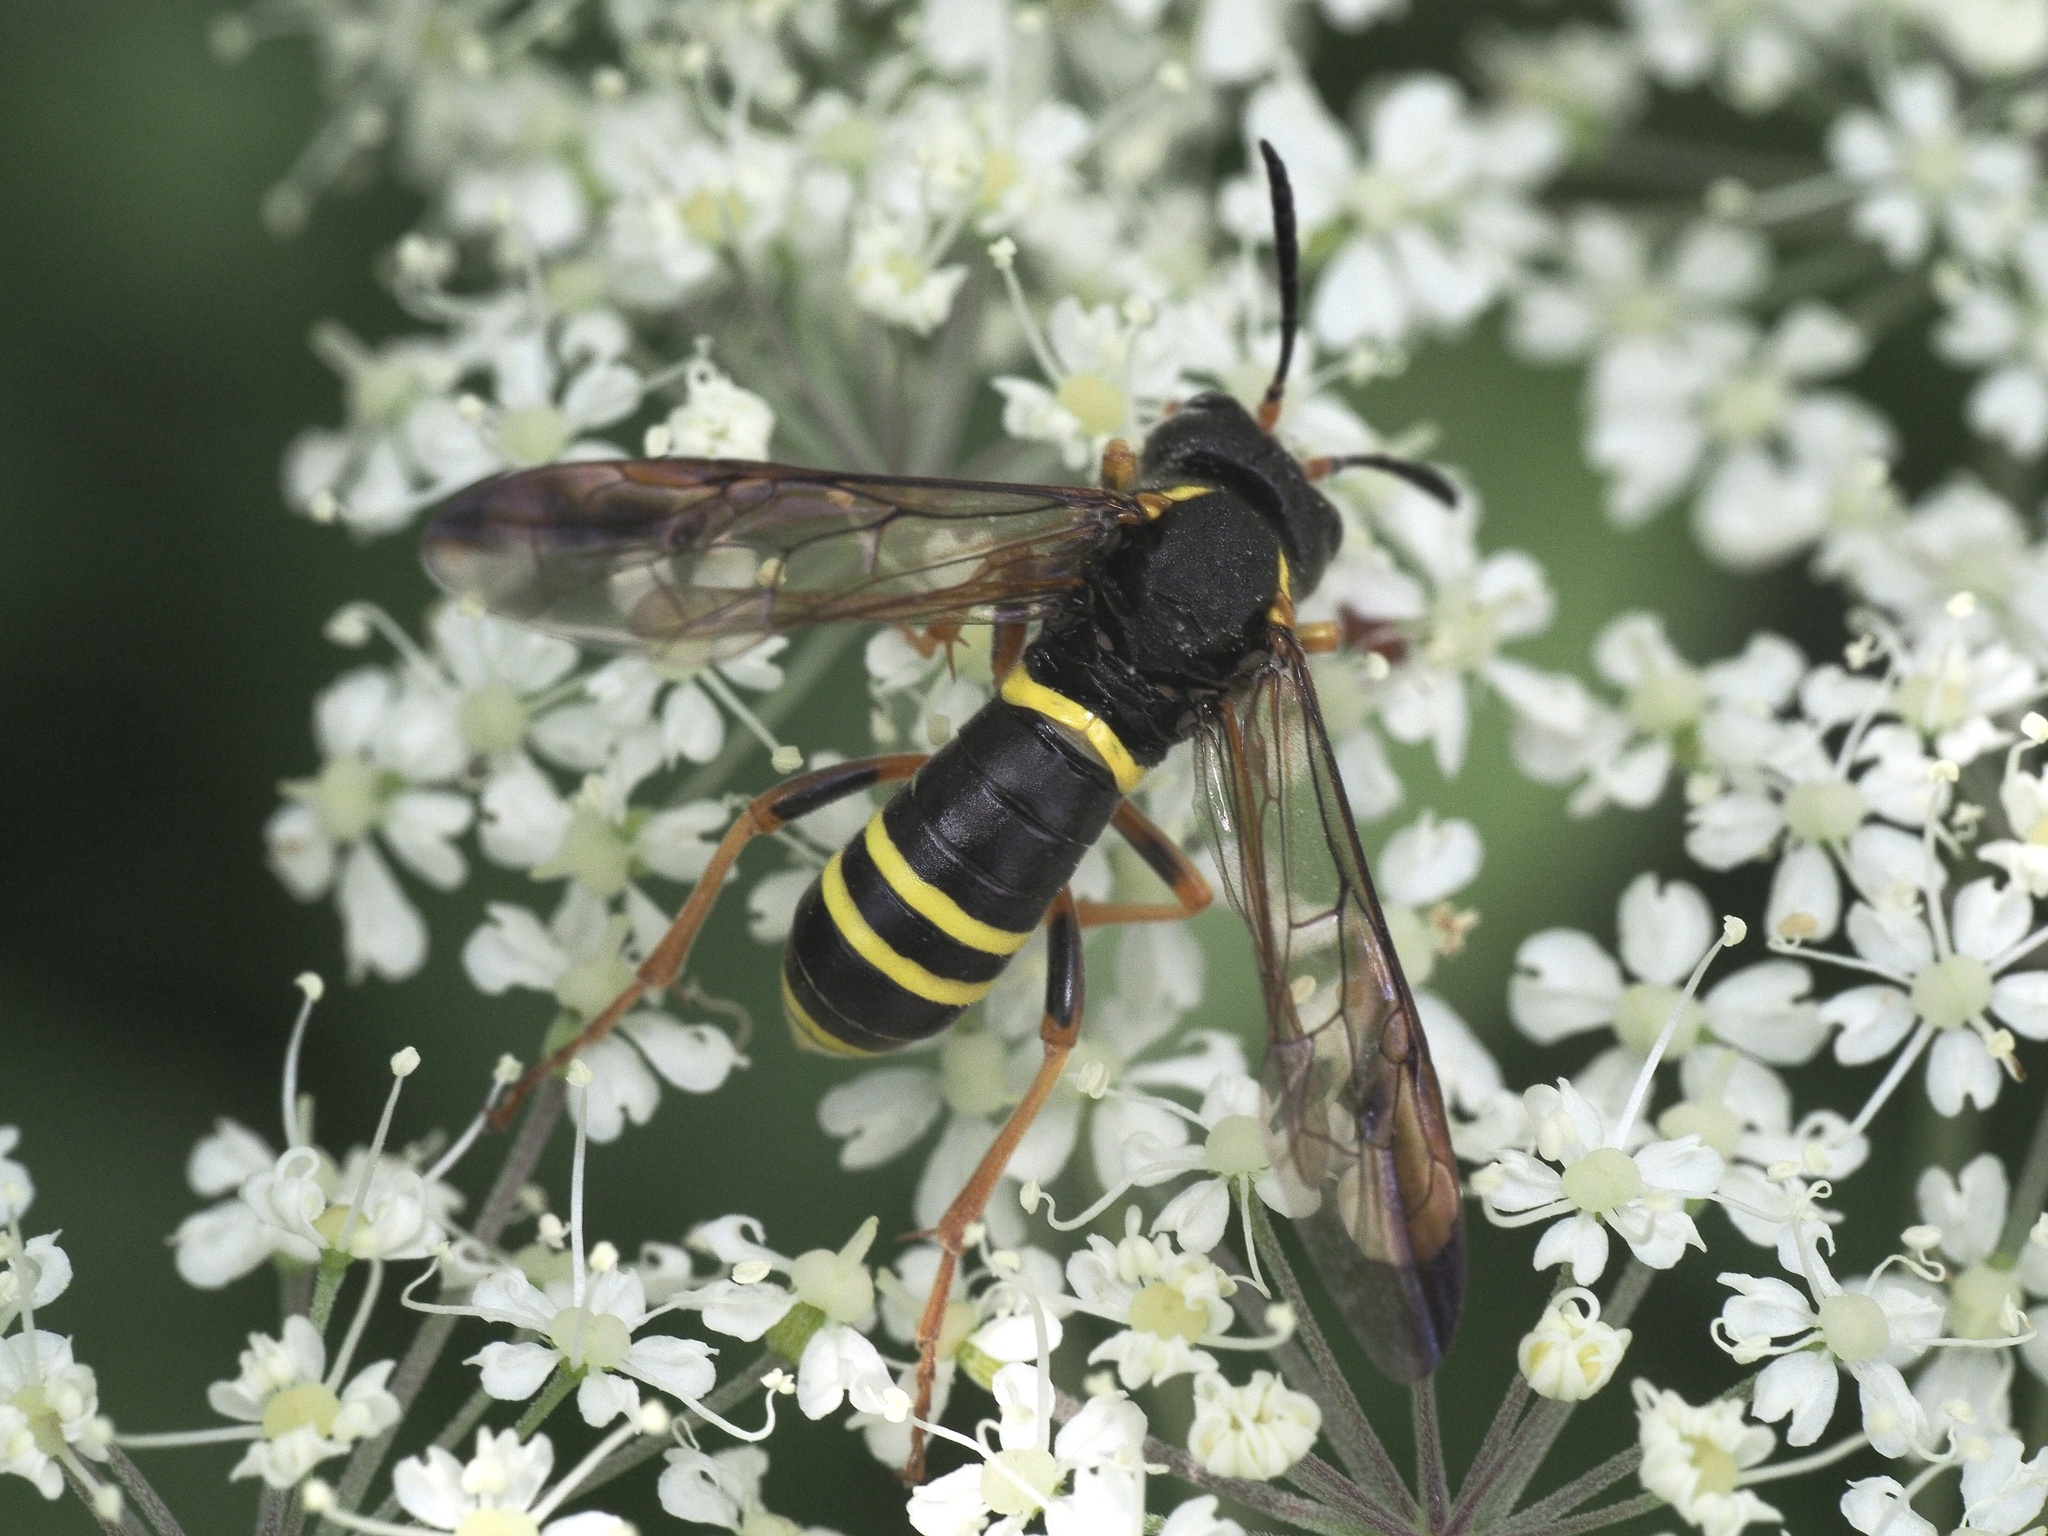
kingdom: Animalia
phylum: Arthropoda
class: Insecta
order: Hymenoptera
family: Tenthredinidae
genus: Tenthredo
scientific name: Tenthredo vespa
